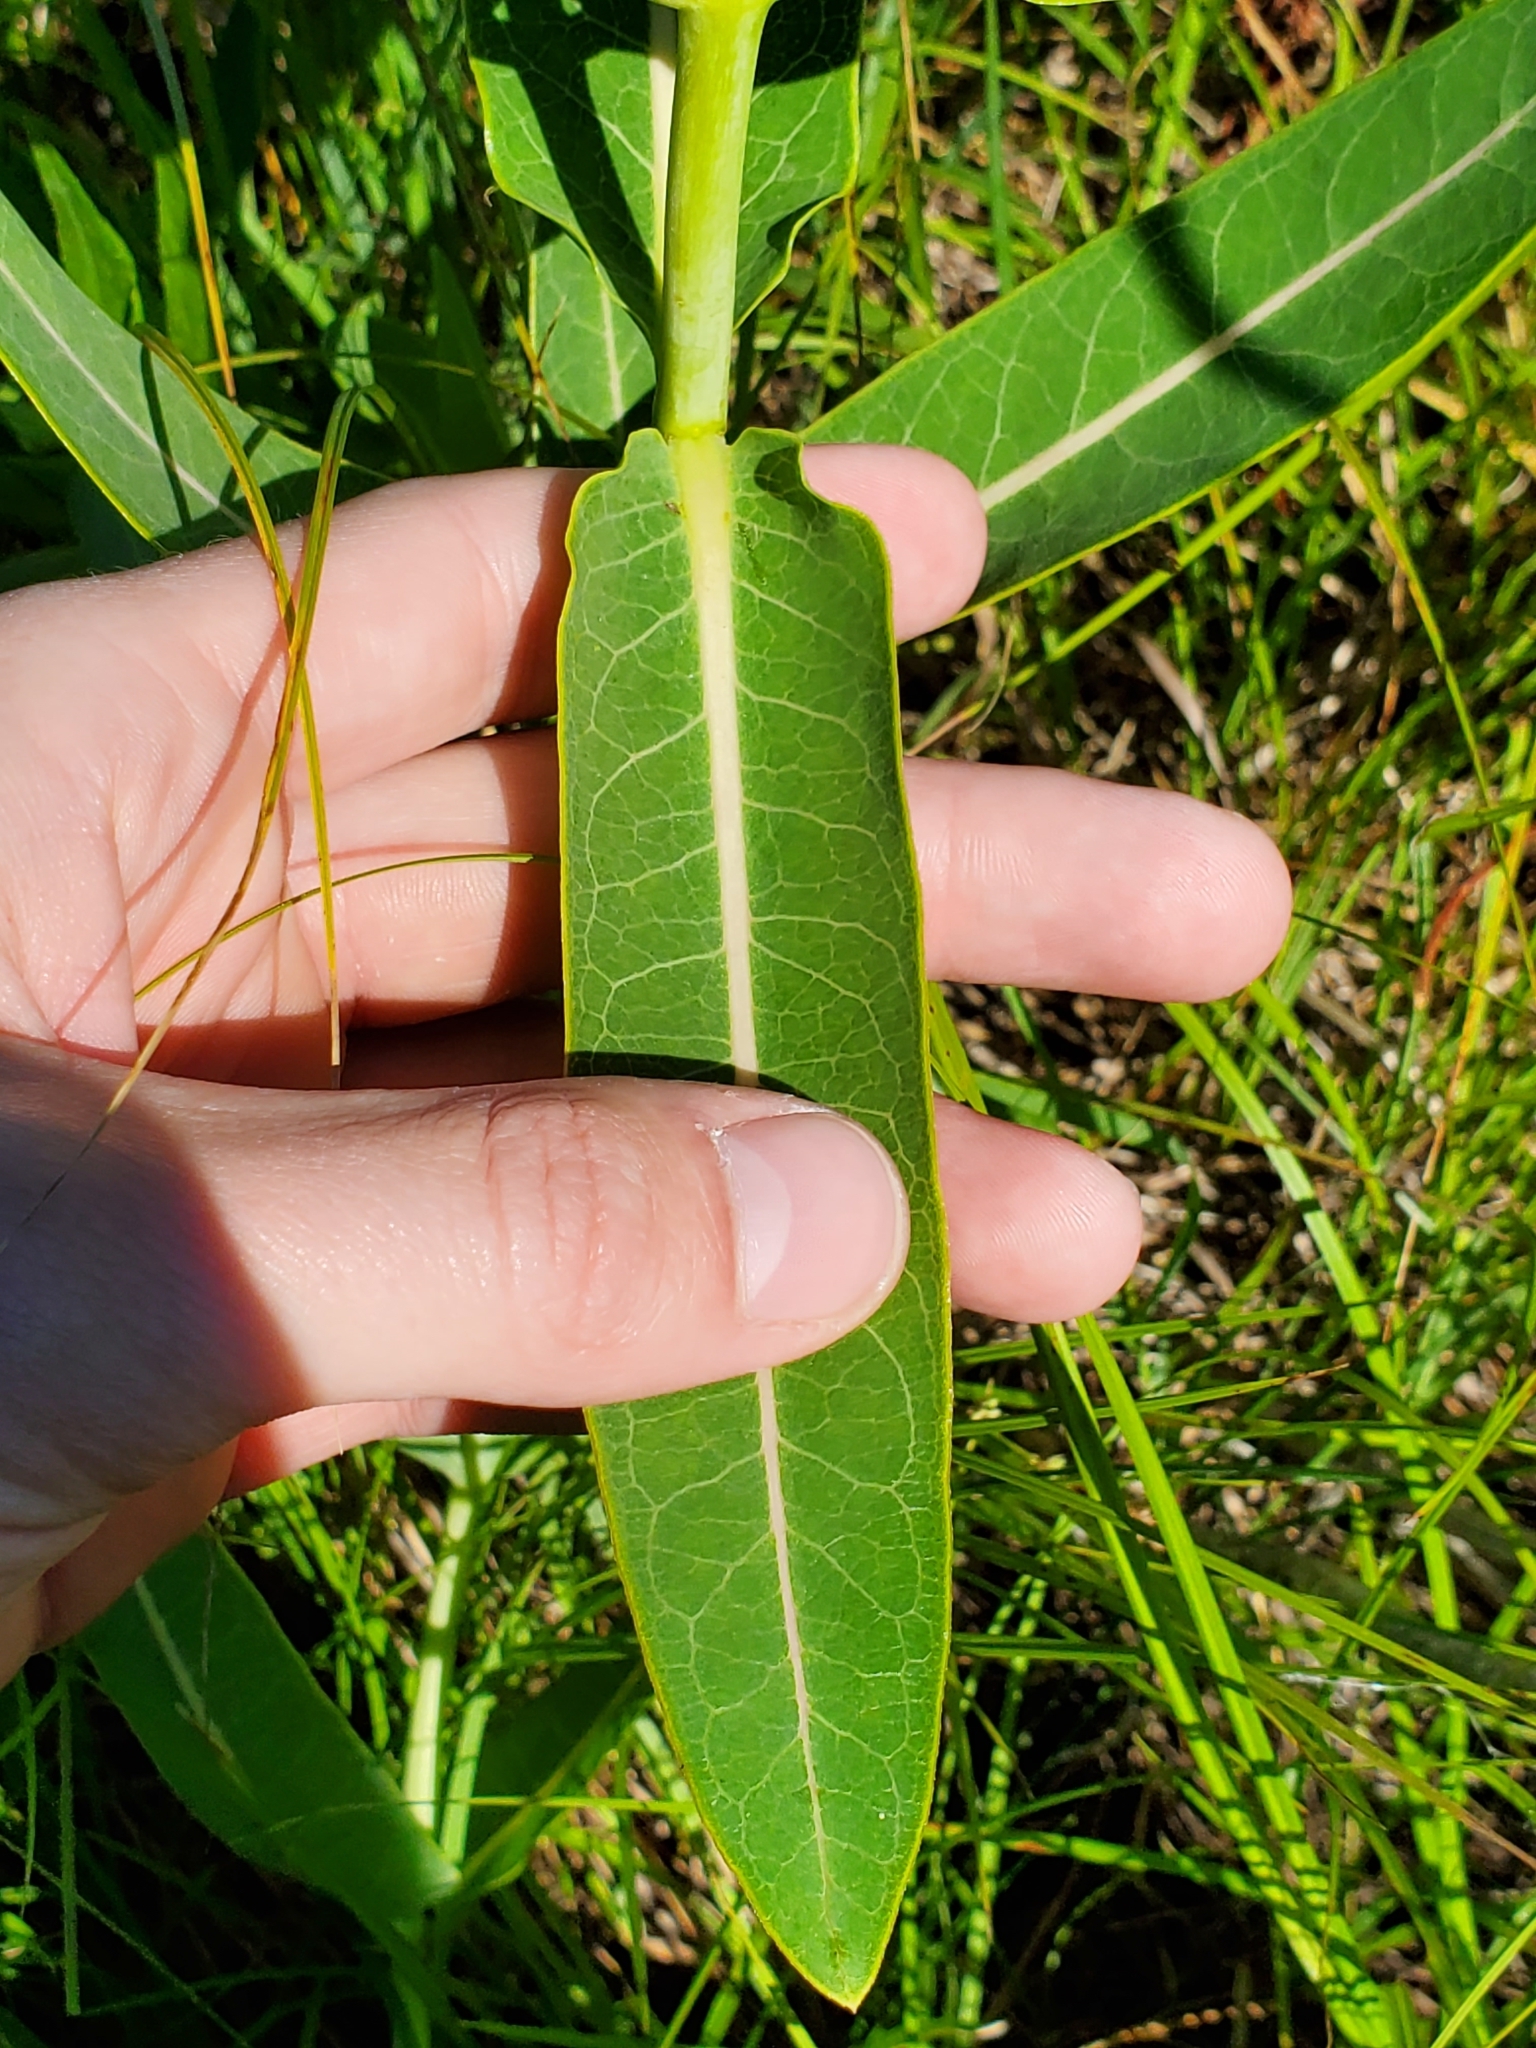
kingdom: Plantae
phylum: Tracheophyta
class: Magnoliopsida
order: Gentianales
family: Apocynaceae
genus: Asclepias
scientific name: Asclepias sullivantii
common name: Prairie milkweed
